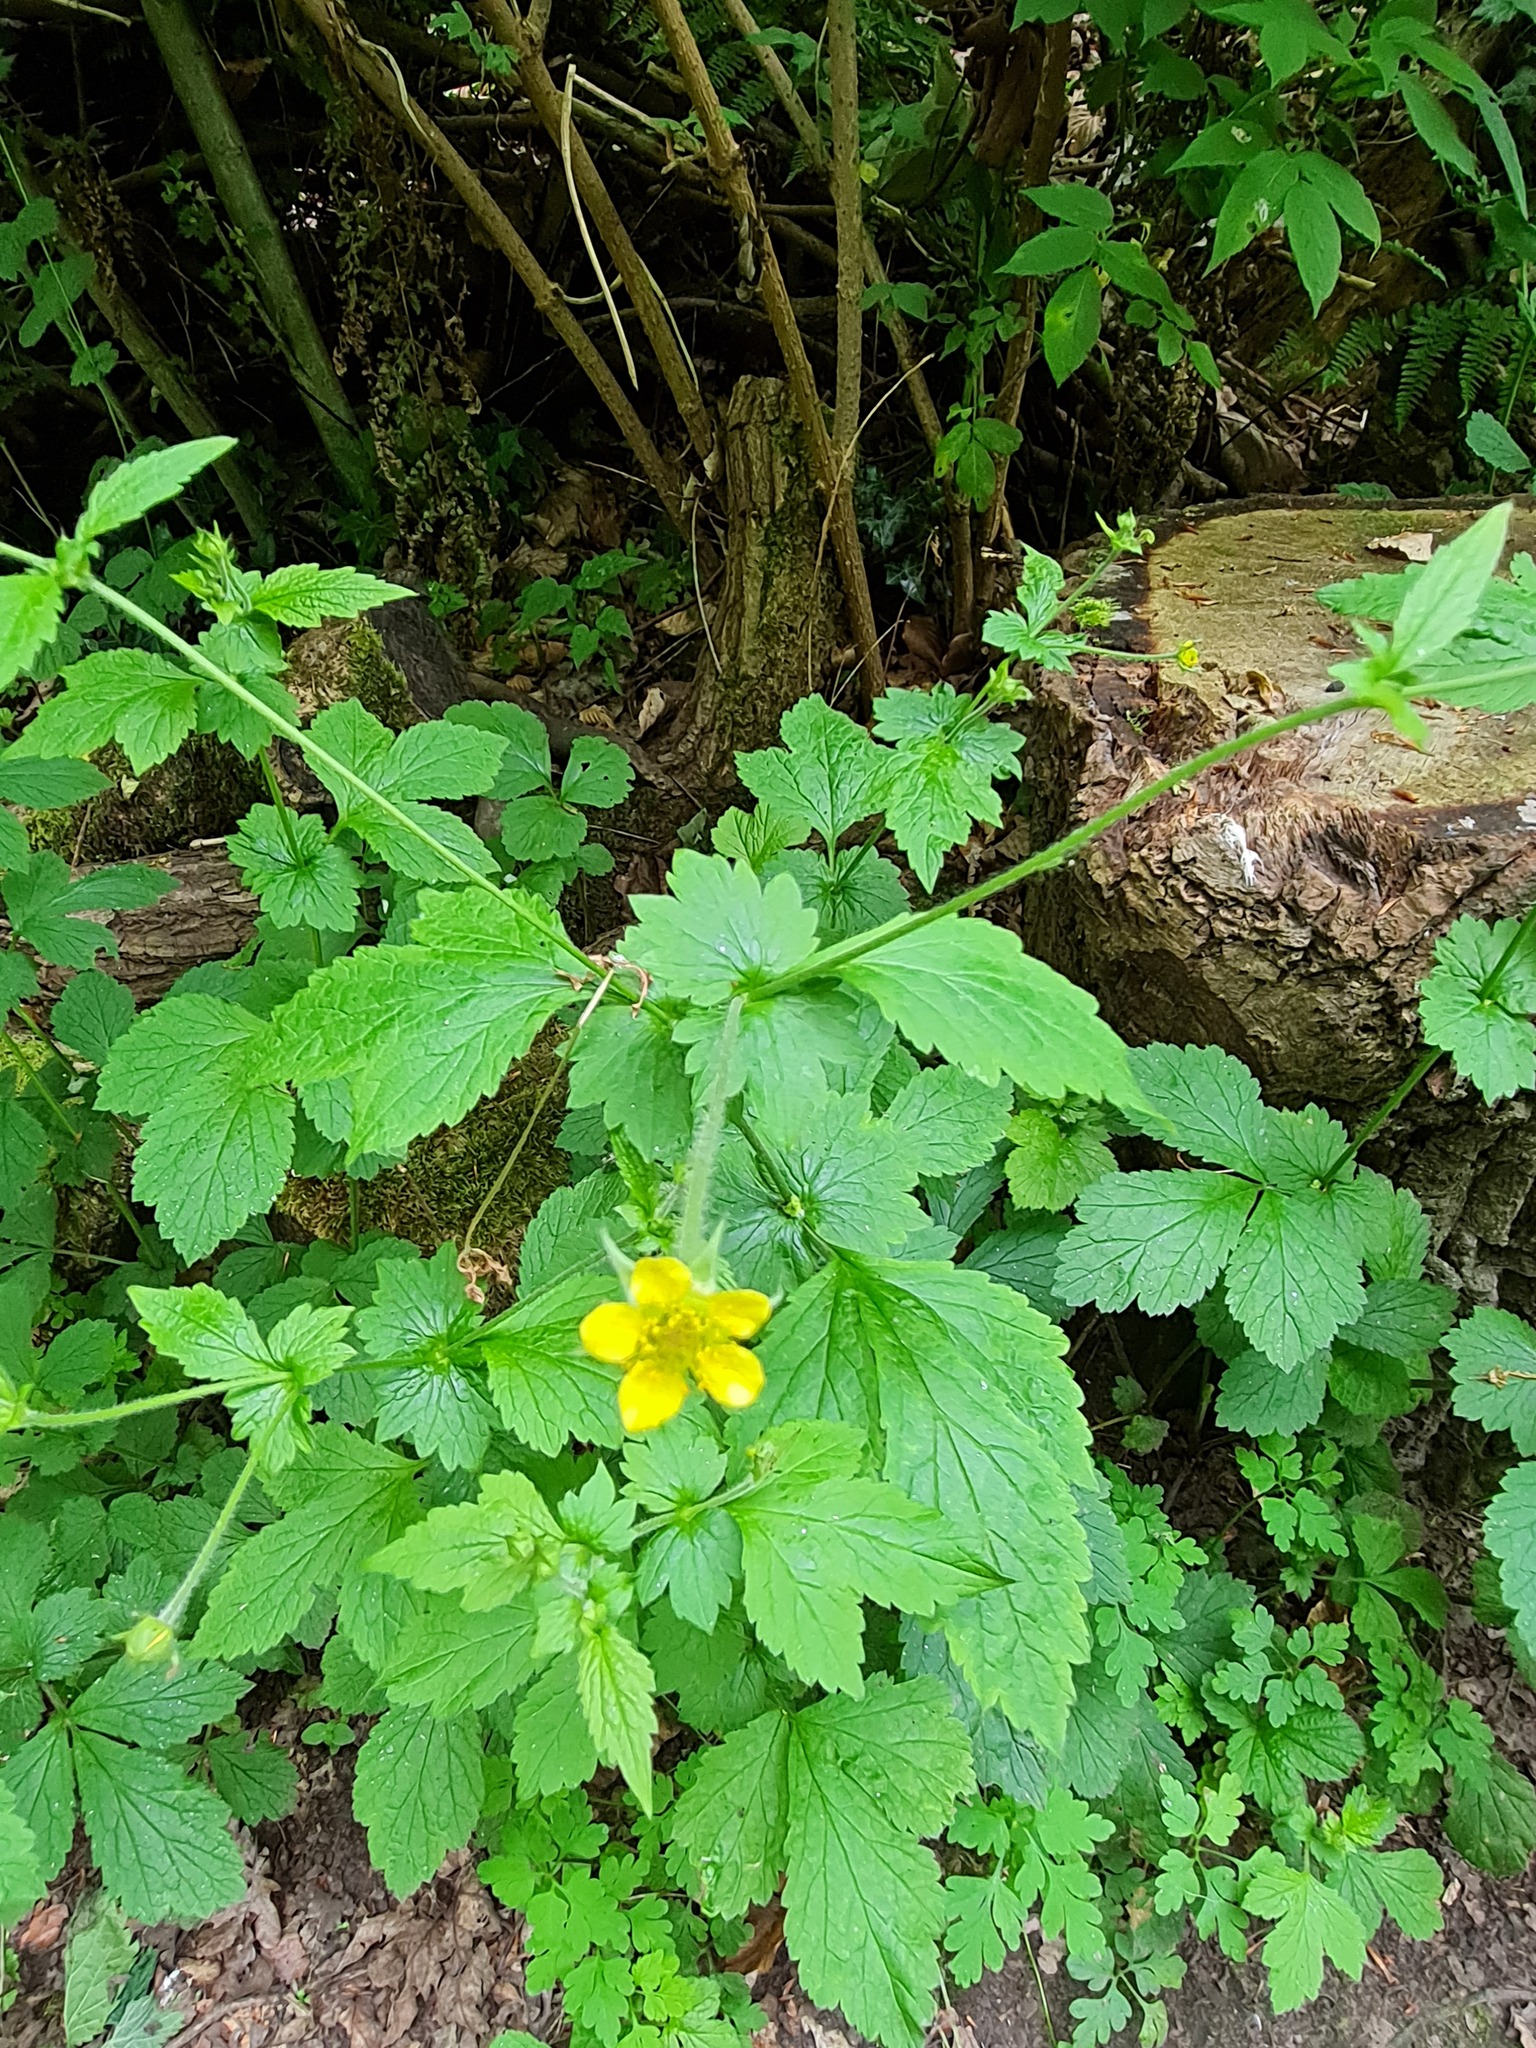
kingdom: Plantae
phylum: Tracheophyta
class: Magnoliopsida
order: Rosales
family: Rosaceae
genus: Geum
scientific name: Geum urbanum
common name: Wood avens
